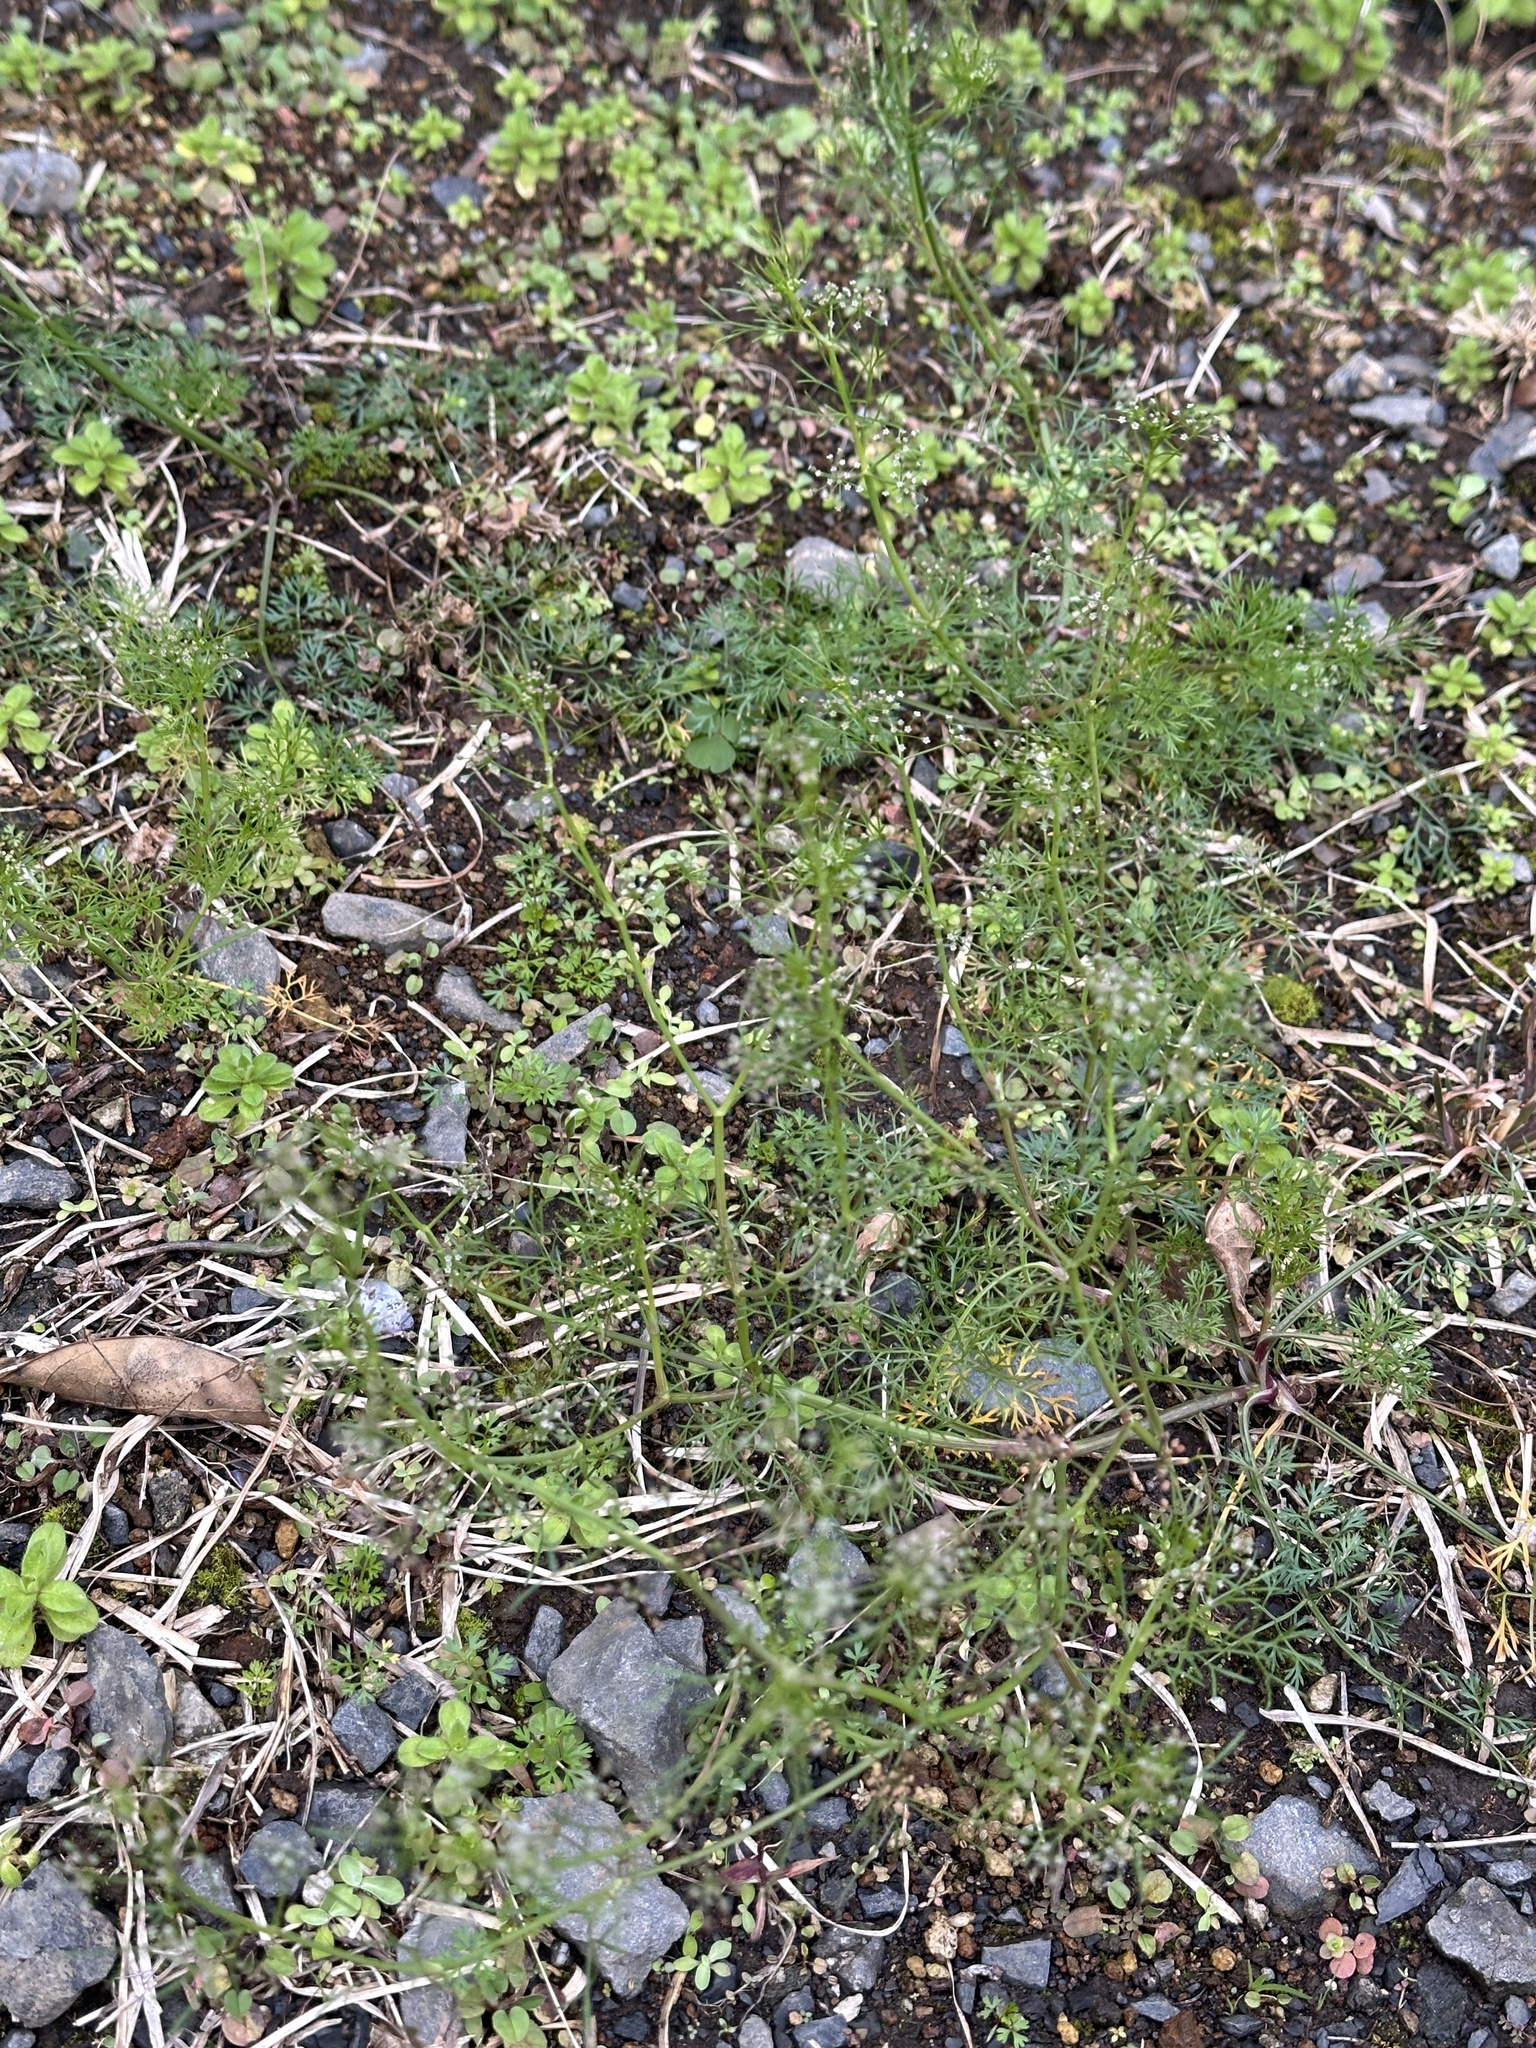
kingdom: Plantae
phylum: Tracheophyta
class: Magnoliopsida
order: Apiales
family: Apiaceae
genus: Cyclospermum
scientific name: Cyclospermum leptophyllum
